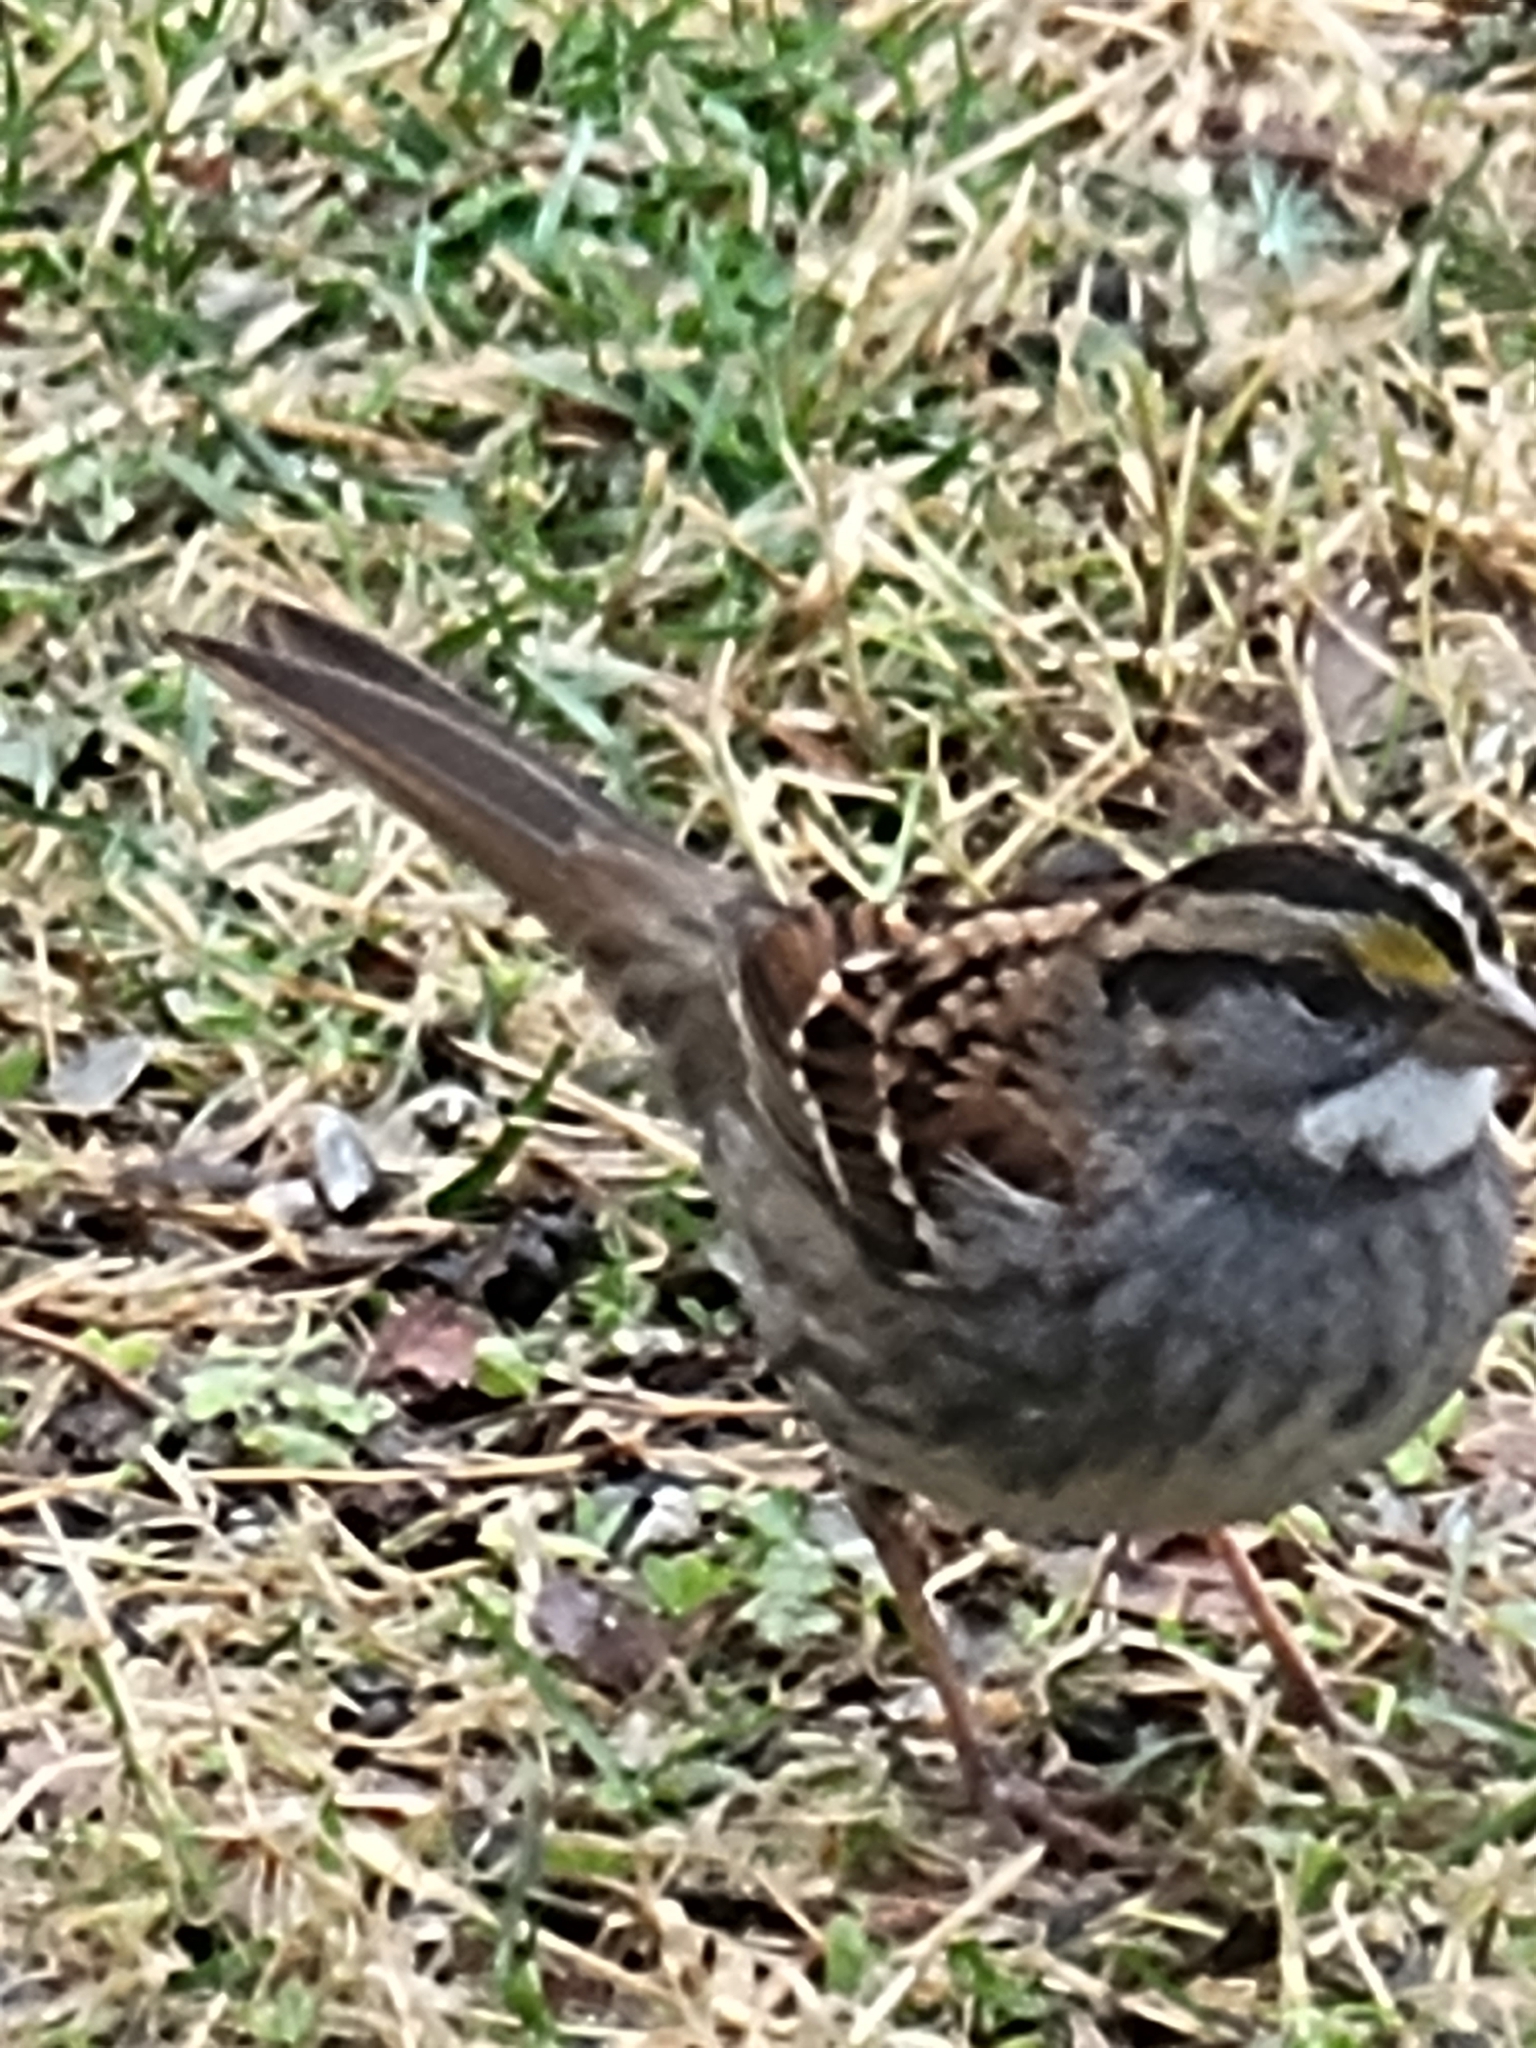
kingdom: Animalia
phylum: Chordata
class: Aves
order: Passeriformes
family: Passerellidae
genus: Zonotrichia
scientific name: Zonotrichia albicollis
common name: White-throated sparrow
